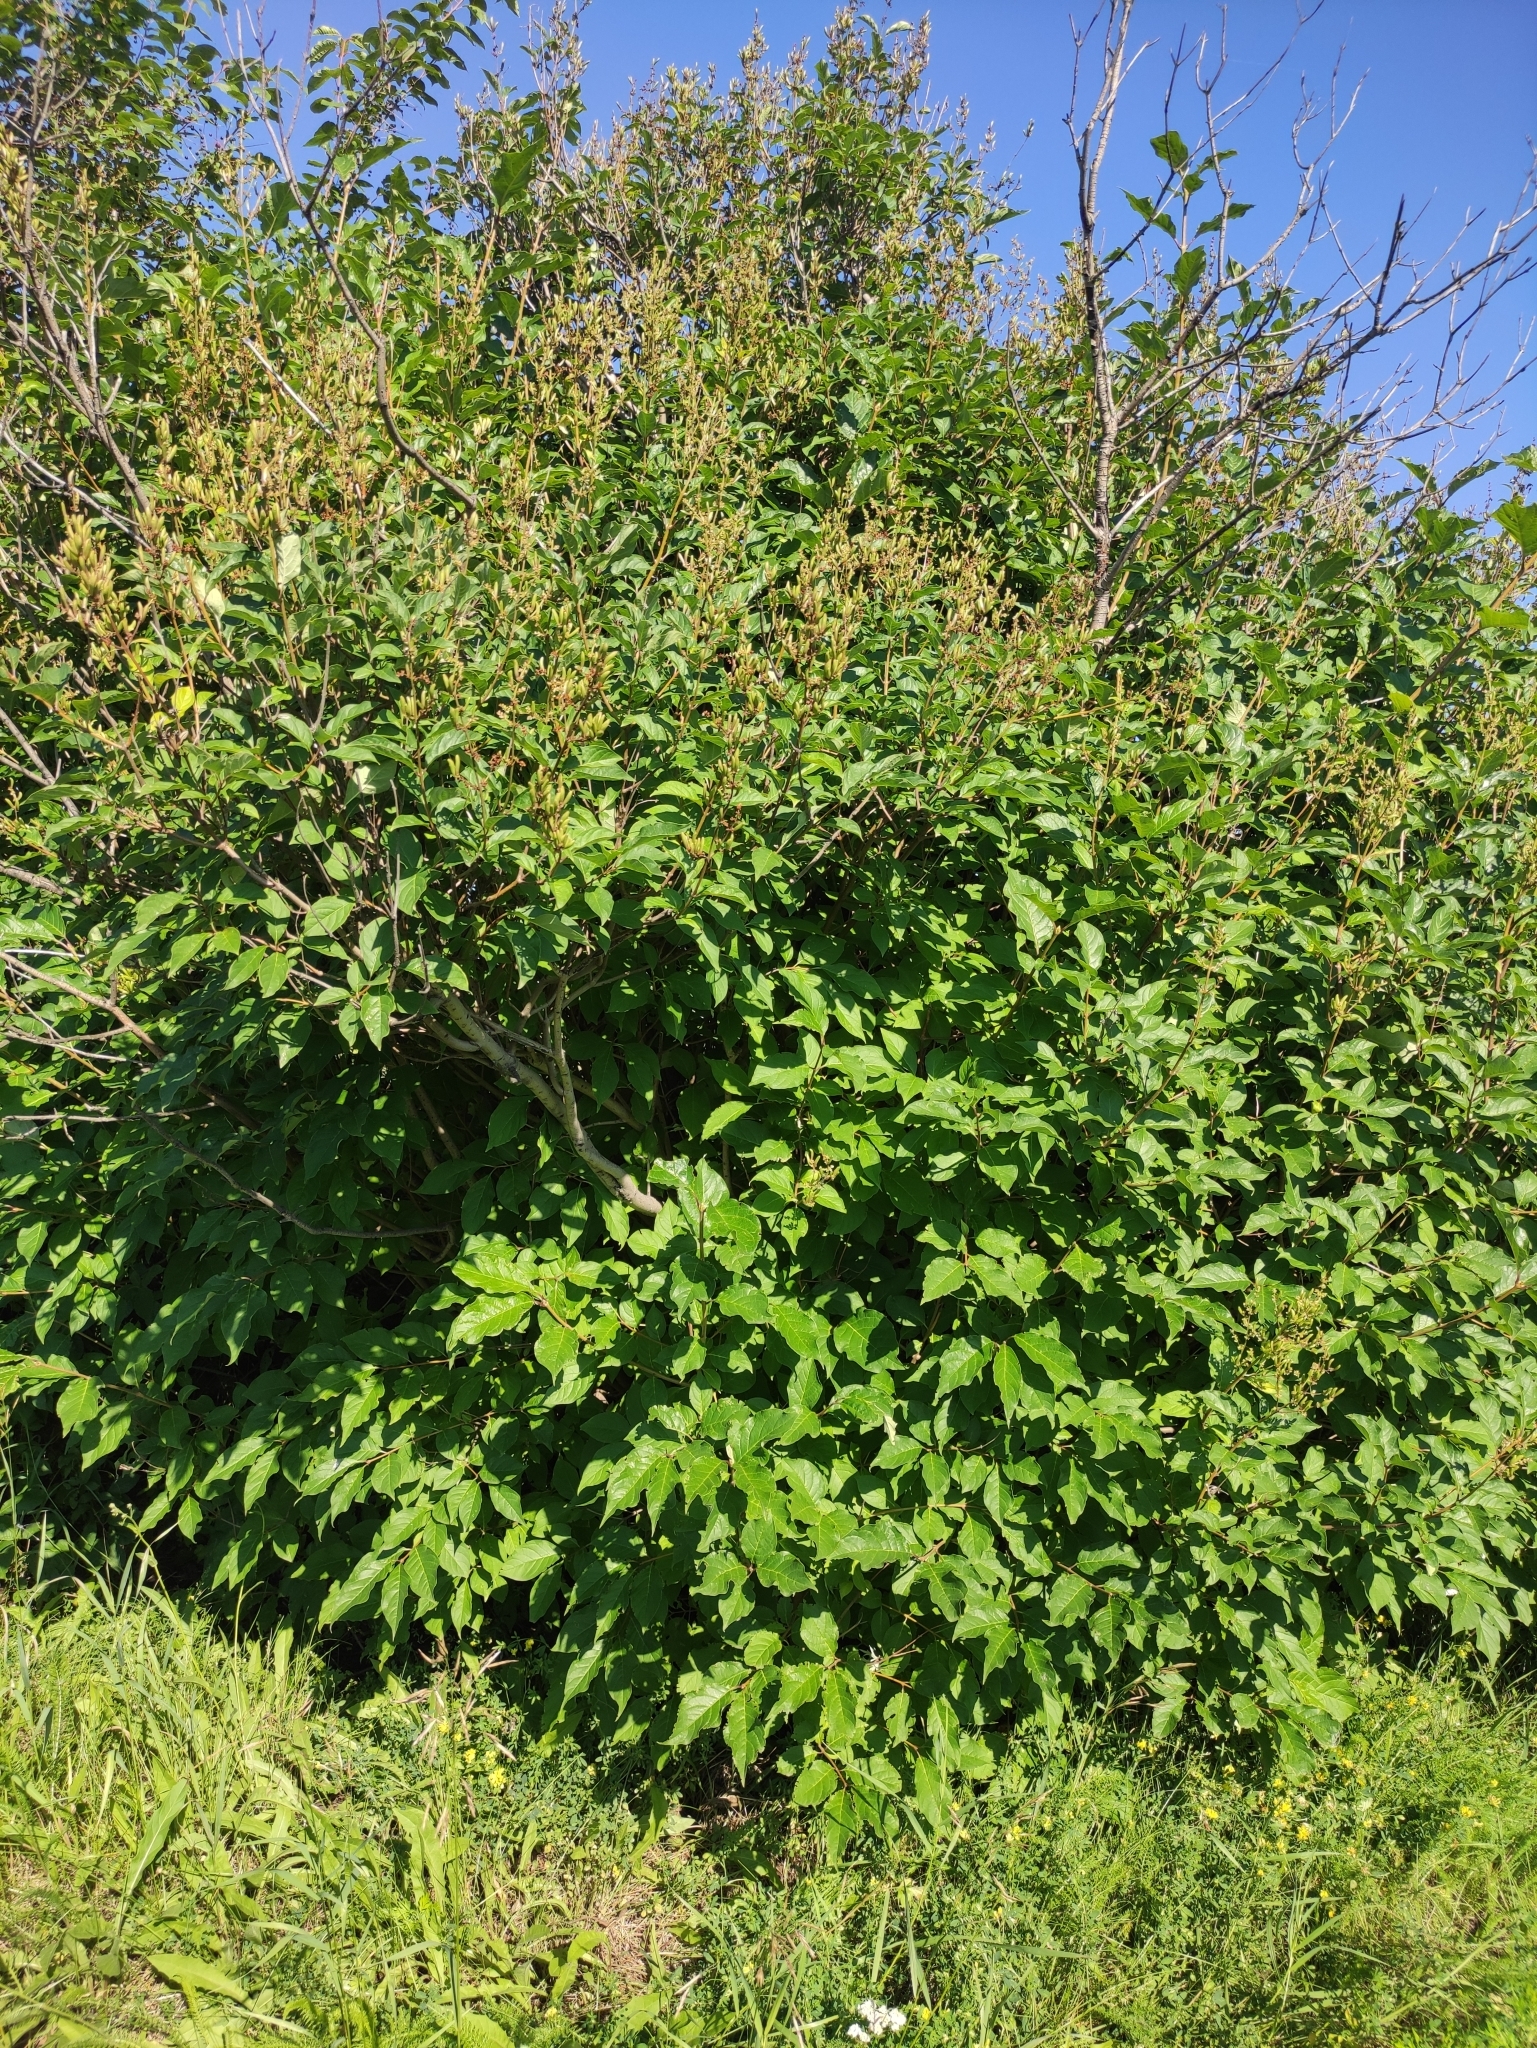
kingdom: Plantae
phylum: Tracheophyta
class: Magnoliopsida
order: Lamiales
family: Oleaceae
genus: Syringa
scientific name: Syringa henryi
